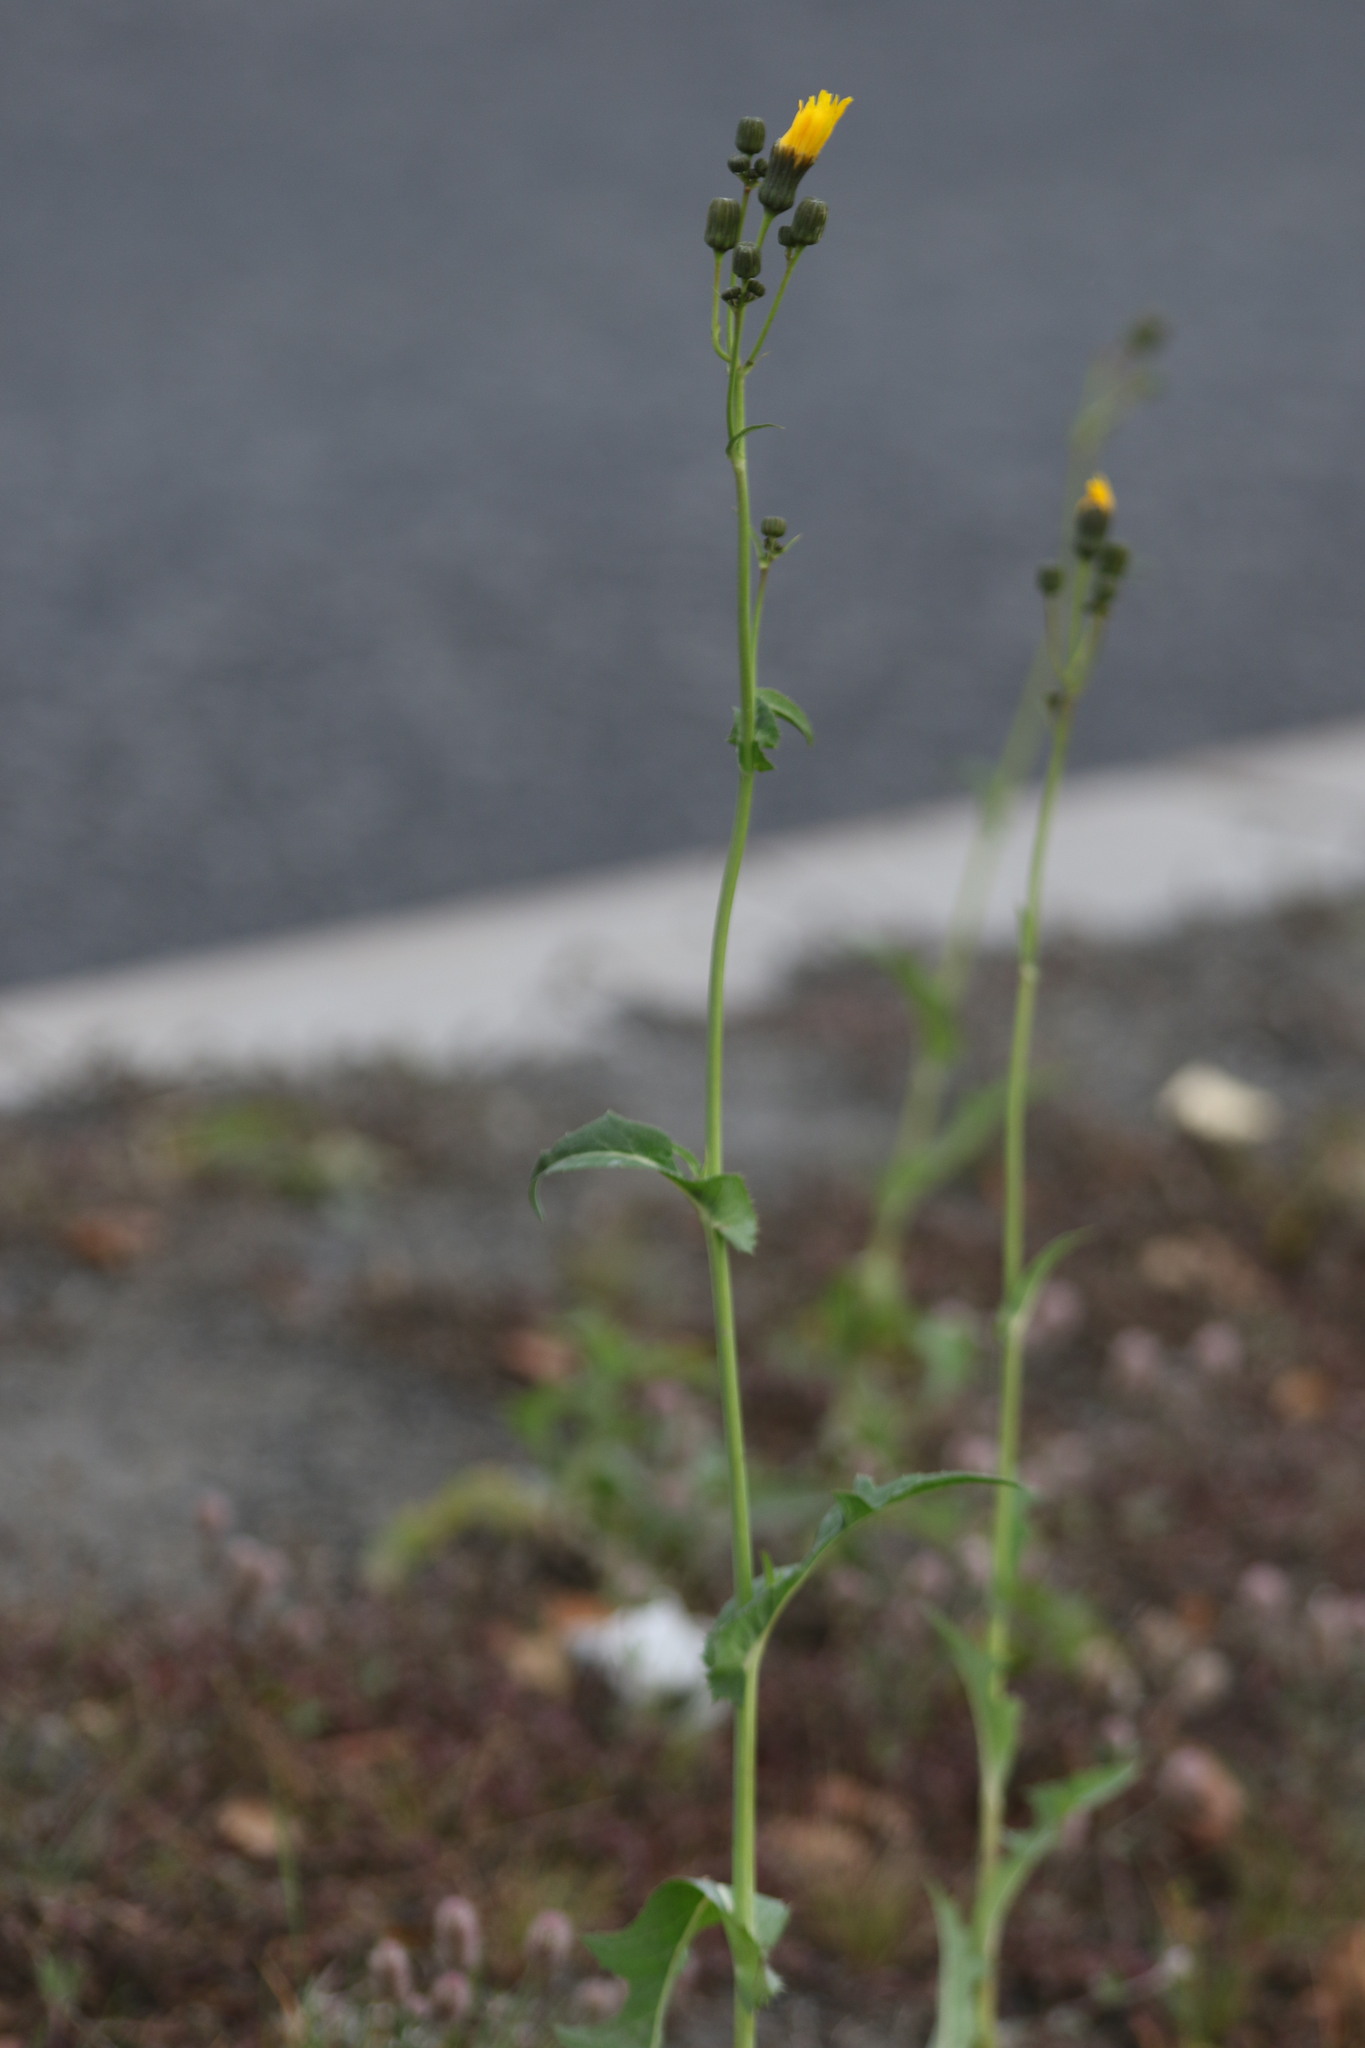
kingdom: Plantae
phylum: Tracheophyta
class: Magnoliopsida
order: Asterales
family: Asteraceae
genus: Sonchus
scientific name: Sonchus arvensis
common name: Perennial sow-thistle
